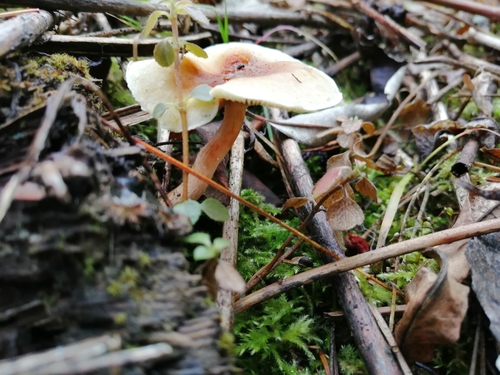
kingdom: Fungi
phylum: Basidiomycota
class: Agaricomycetes
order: Agaricales
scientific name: Agaricales
